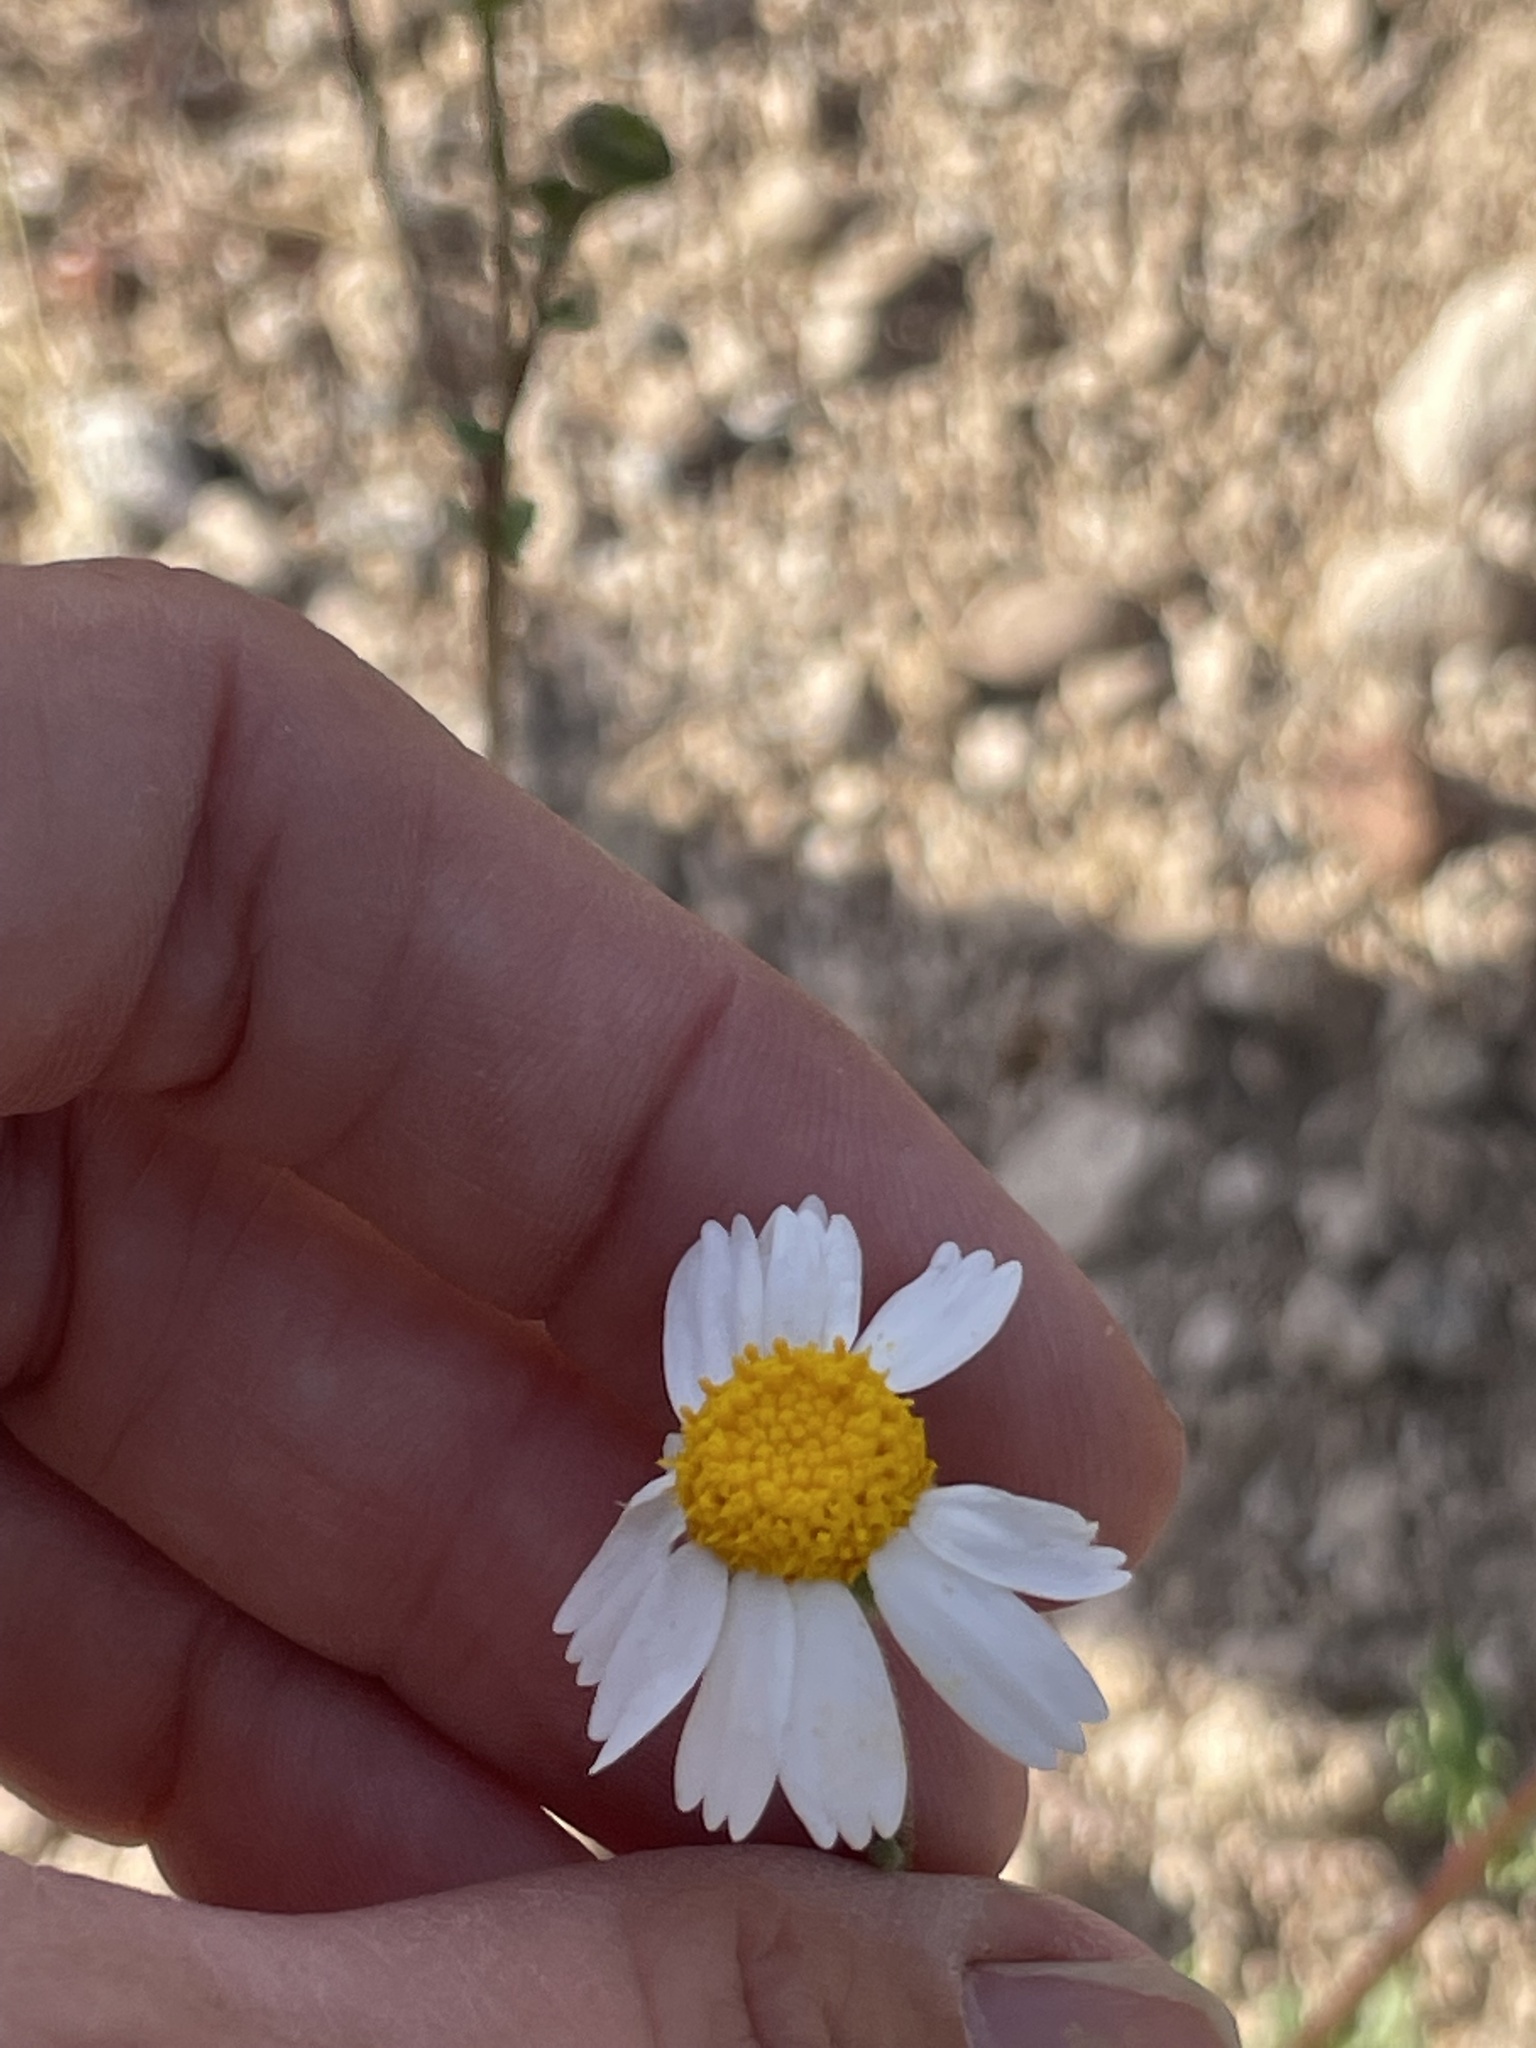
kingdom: Plantae
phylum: Tracheophyta
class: Magnoliopsida
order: Asterales
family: Asteraceae
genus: Perityle
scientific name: Perityle crassifolia
